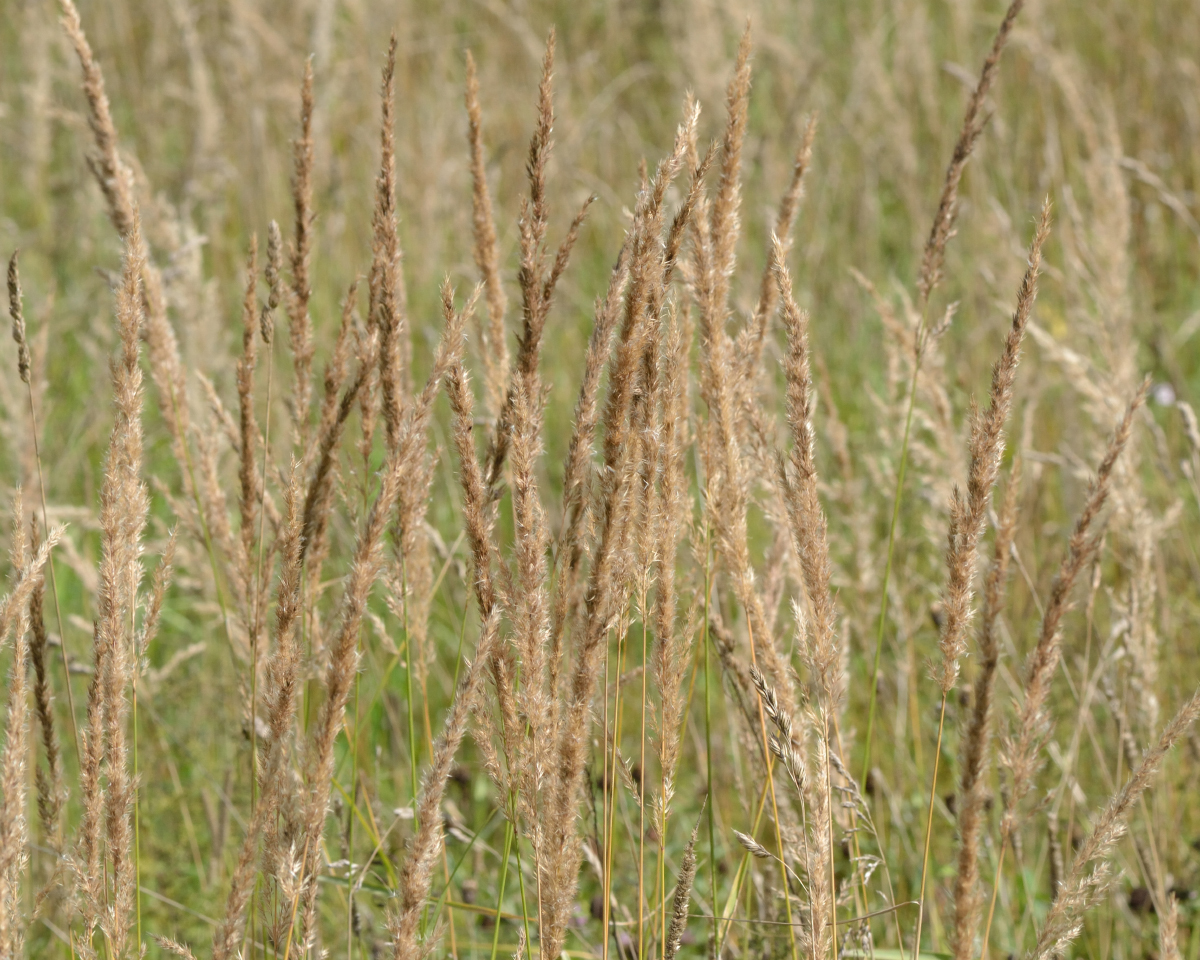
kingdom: Plantae
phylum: Tracheophyta
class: Liliopsida
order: Poales
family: Poaceae
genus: Calamagrostis
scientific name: Calamagrostis epigejos
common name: Wood small-reed
